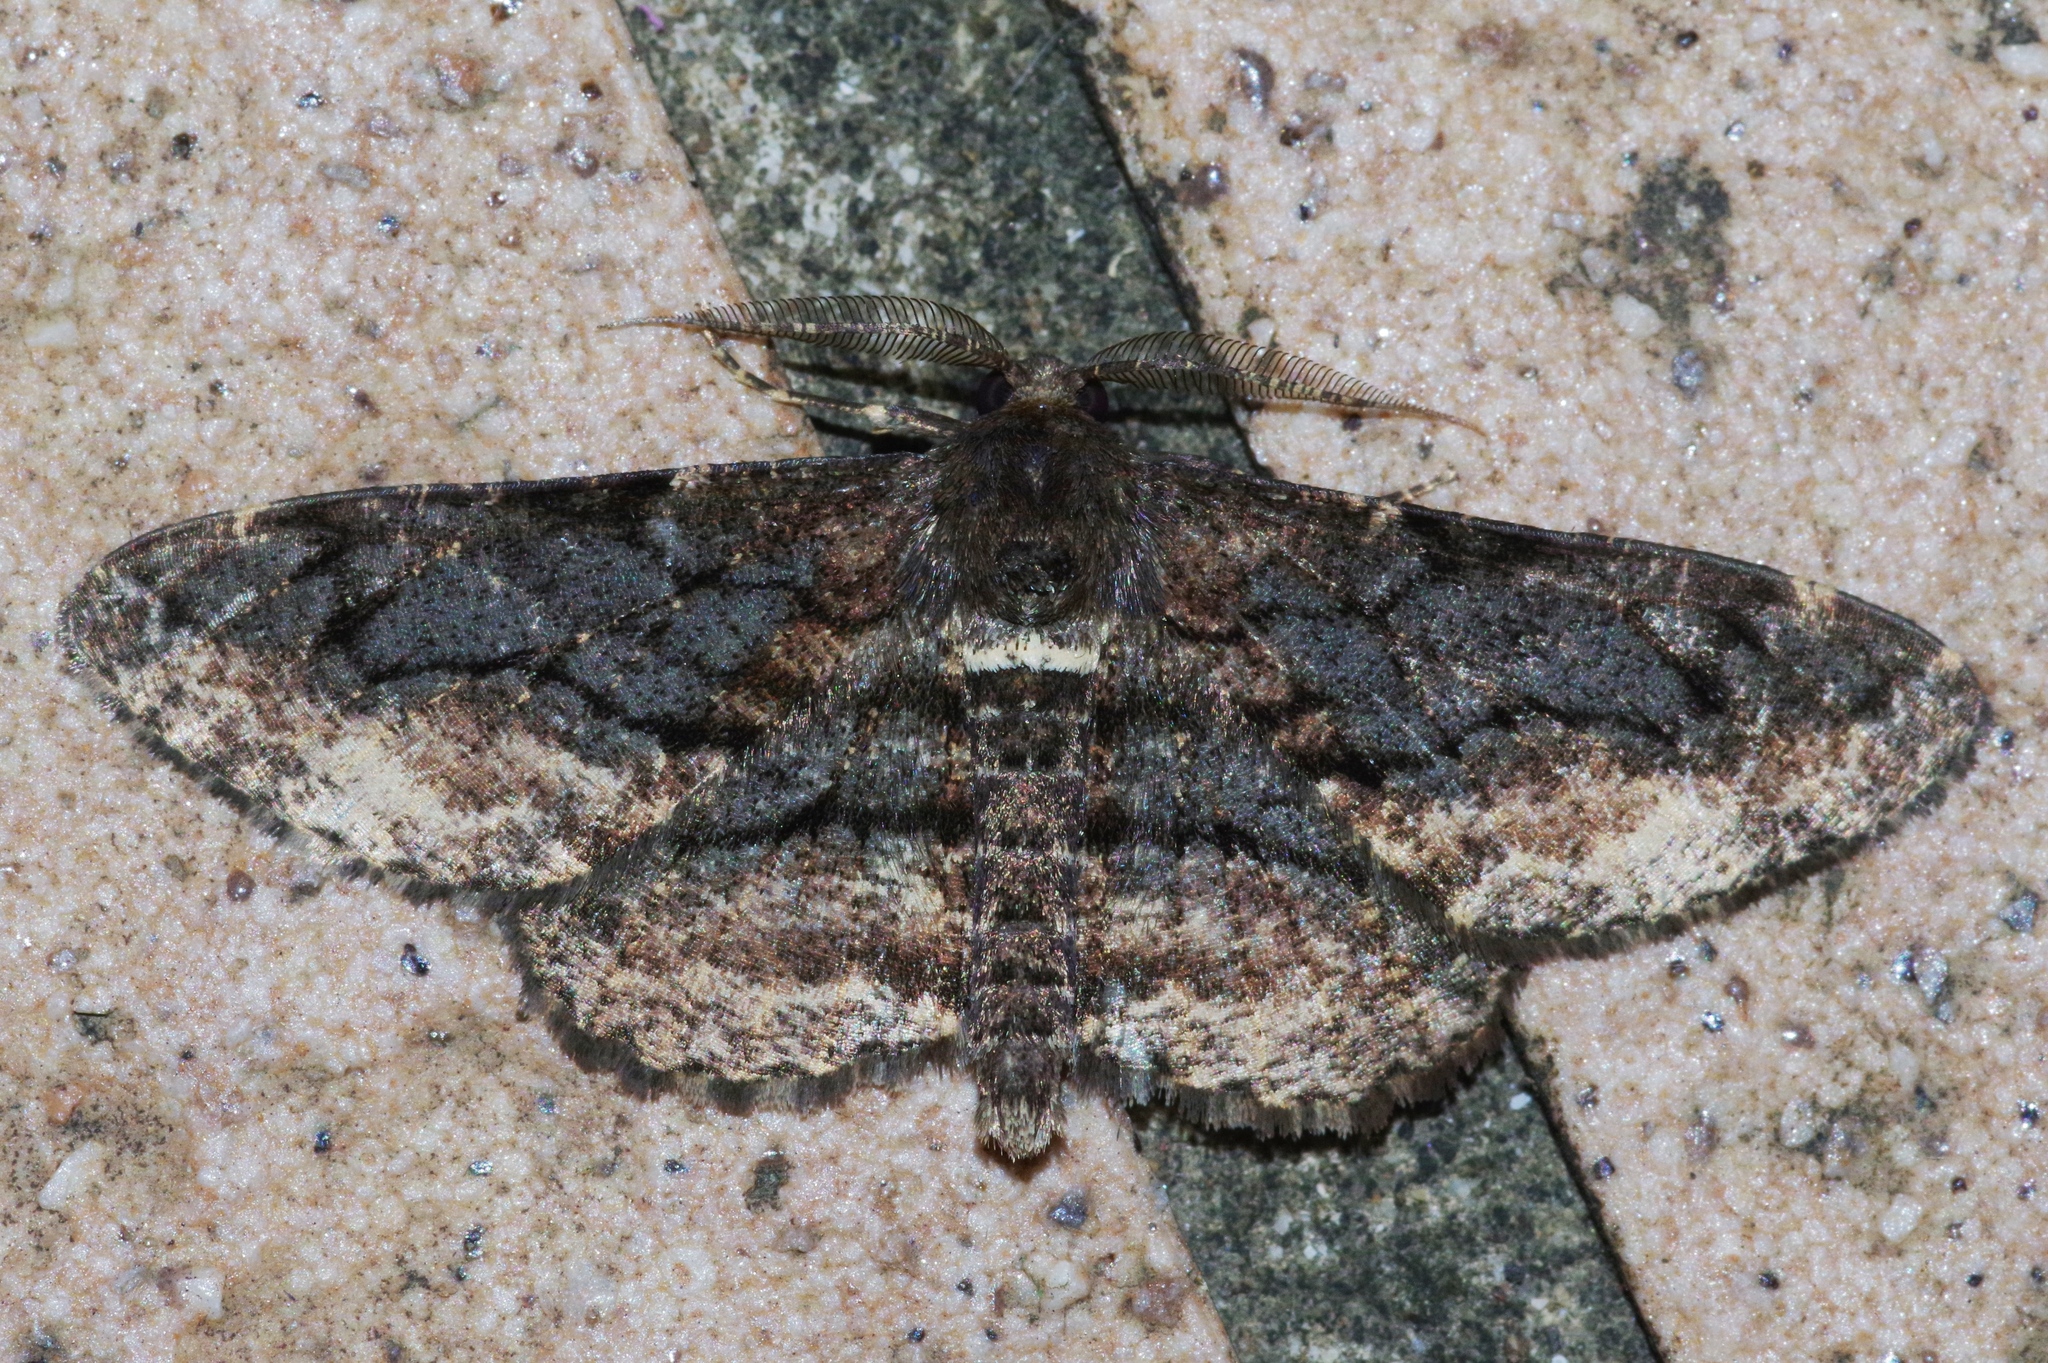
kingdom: Animalia
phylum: Arthropoda
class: Insecta
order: Lepidoptera
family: Geometridae
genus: Jankowskia
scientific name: Jankowskia fuscaria
